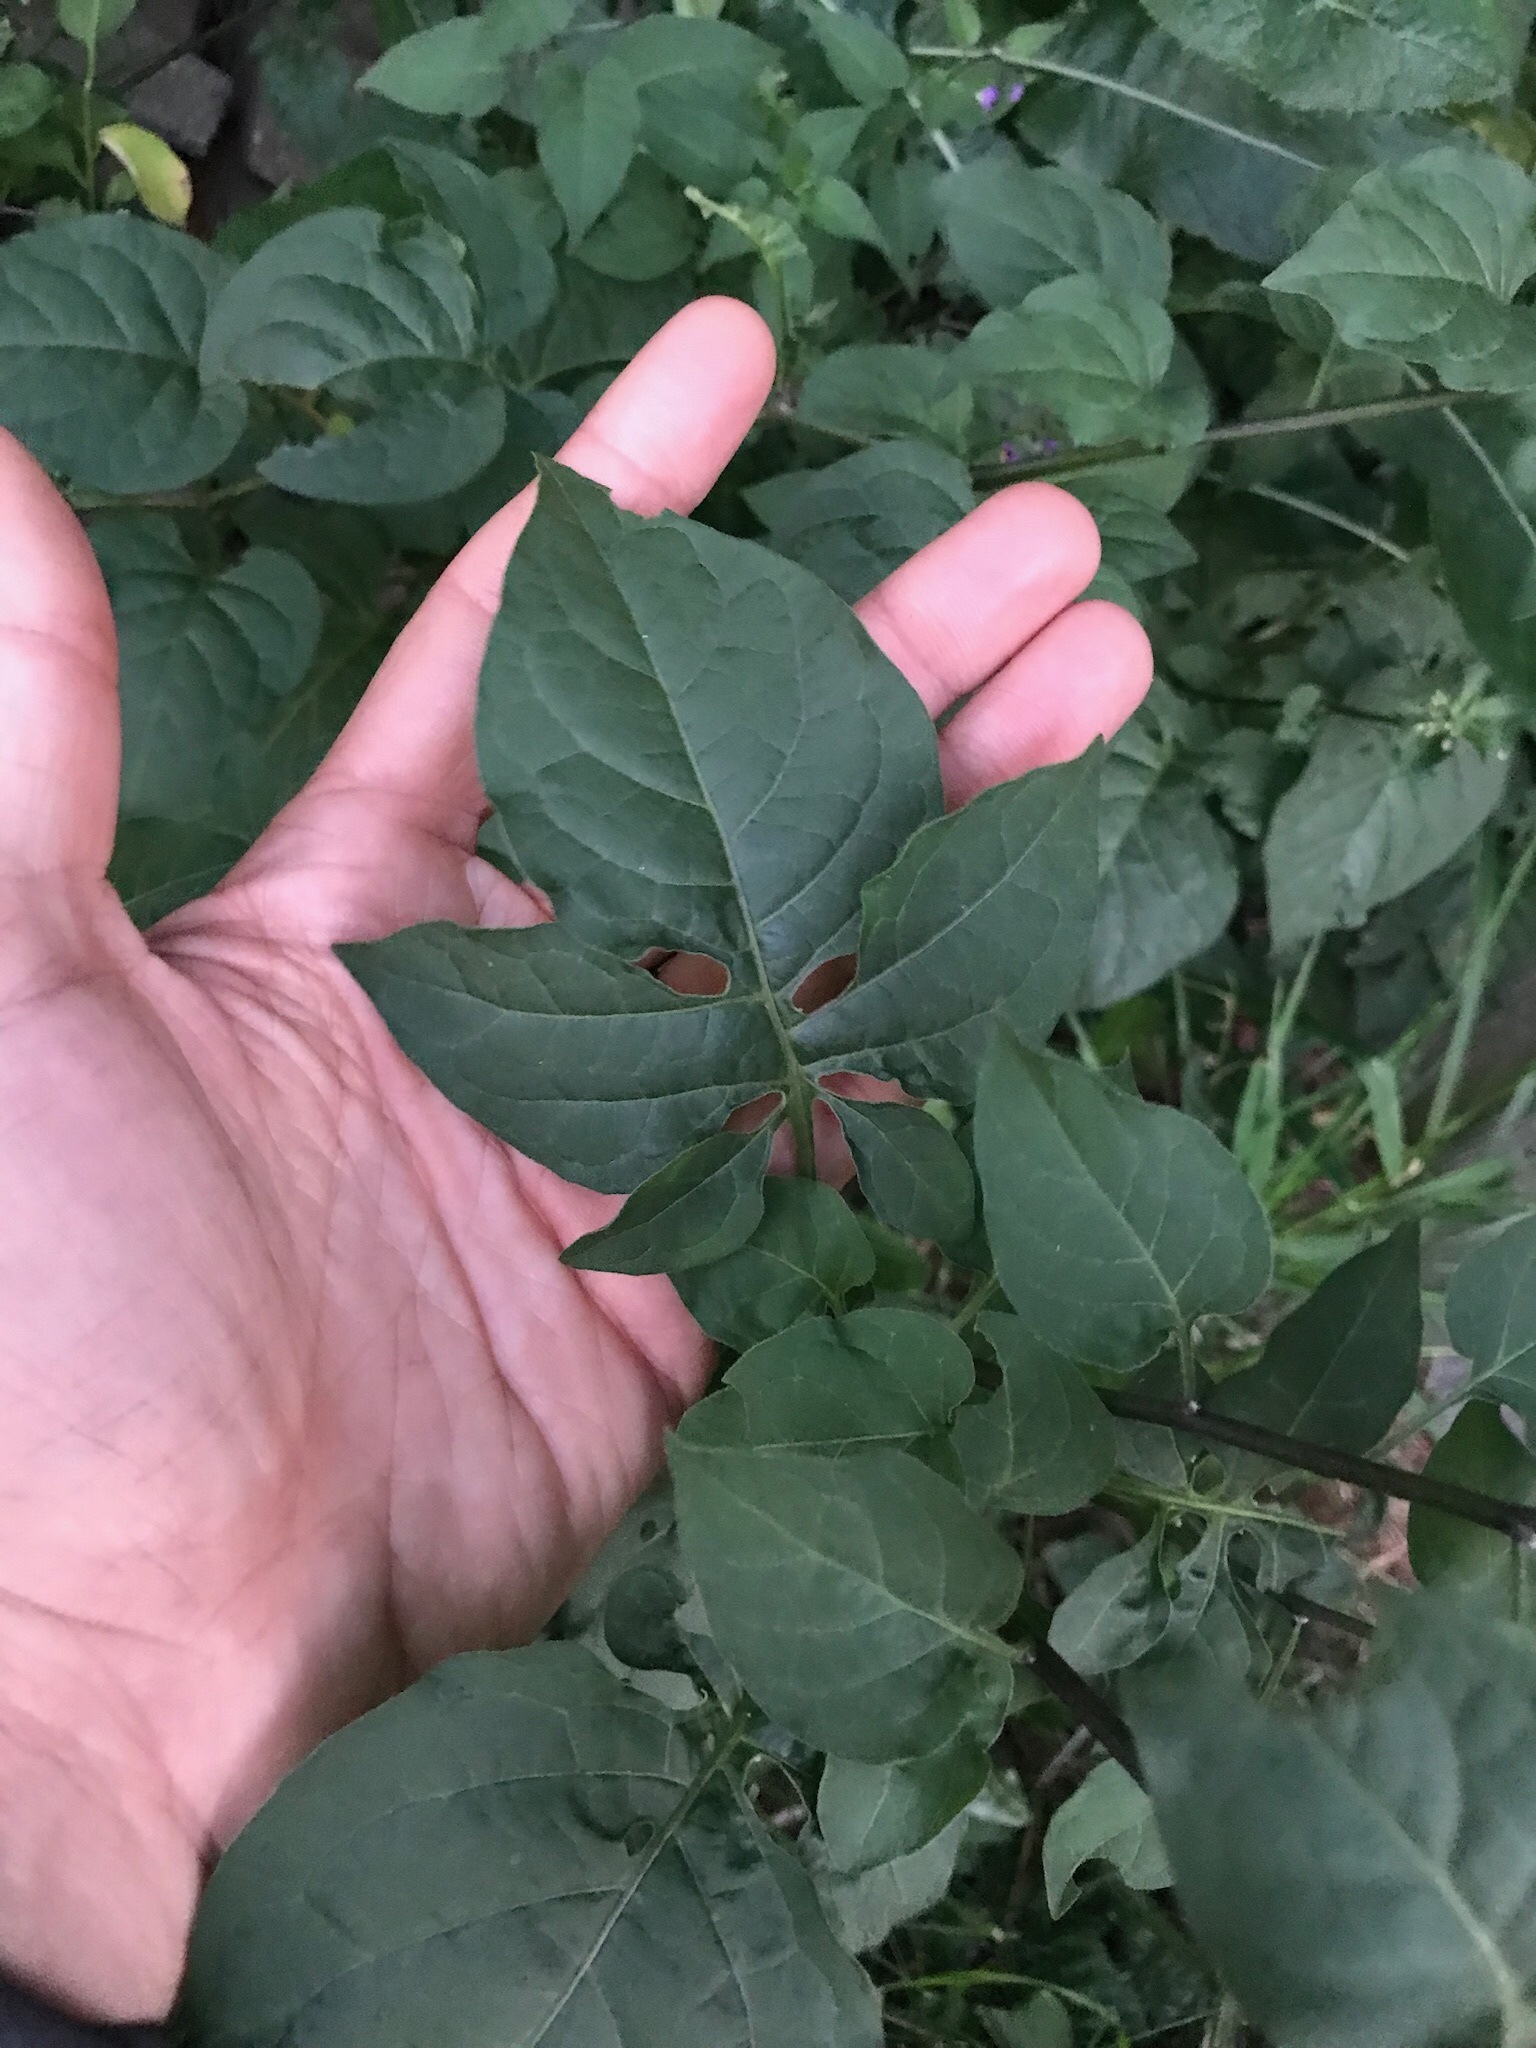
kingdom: Plantae
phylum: Tracheophyta
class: Magnoliopsida
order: Solanales
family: Solanaceae
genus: Solanum
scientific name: Solanum dulcamara
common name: Climbing nightshade
